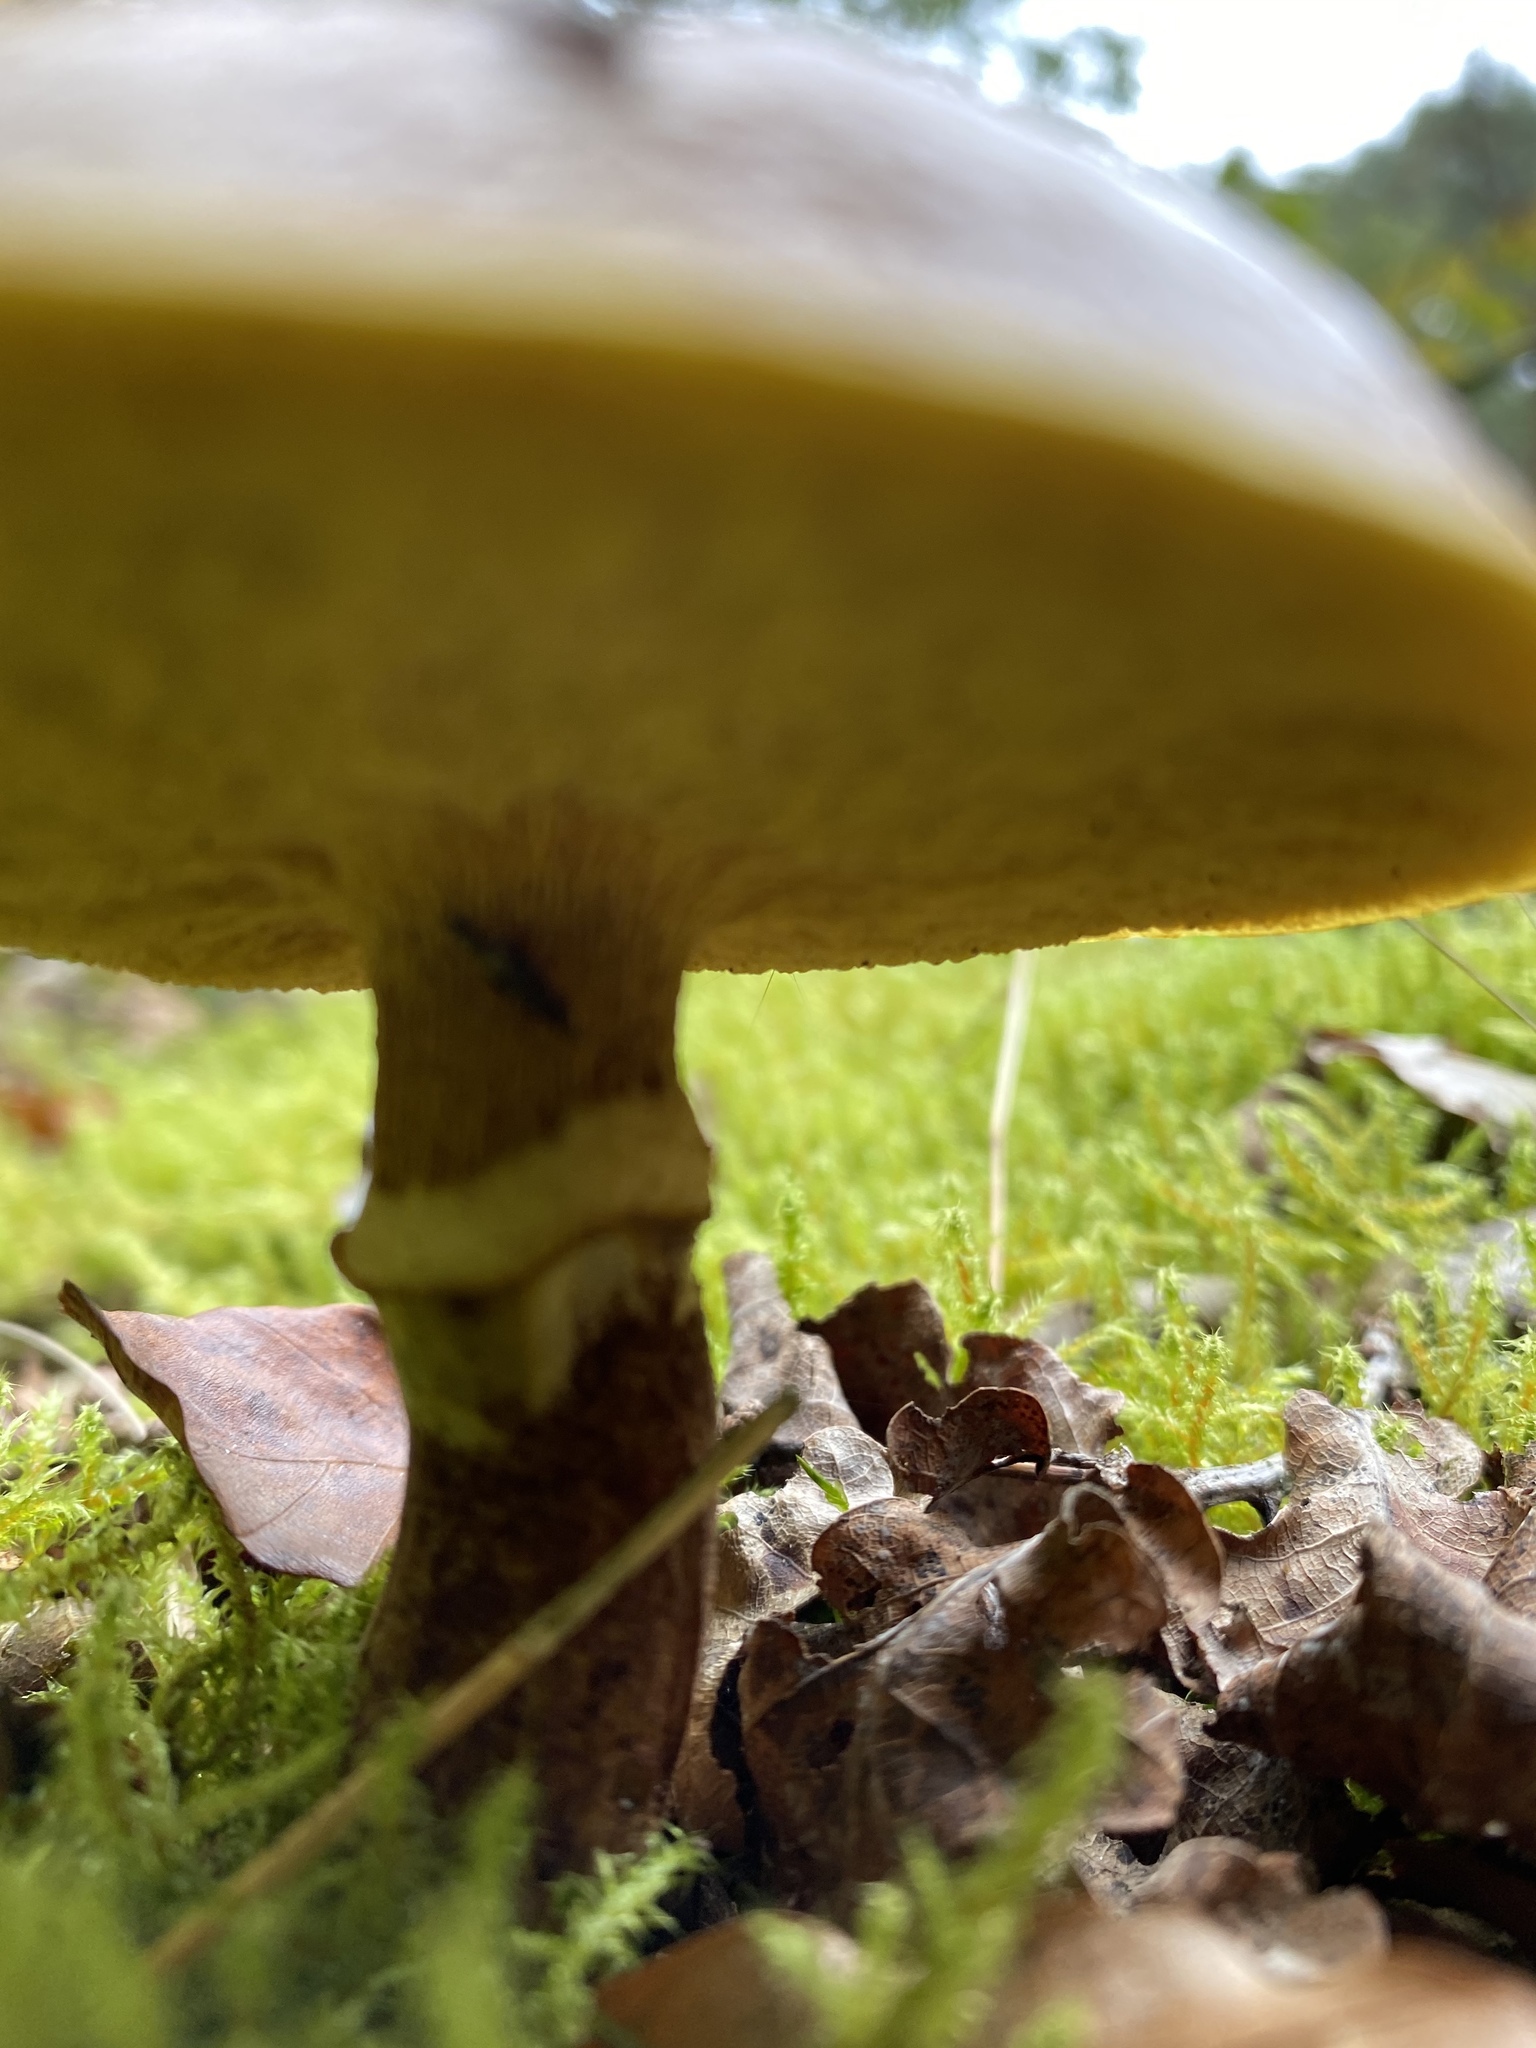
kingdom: Fungi
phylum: Basidiomycota
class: Agaricomycetes
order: Boletales
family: Suillaceae
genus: Suillus
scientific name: Suillus grevillei
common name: Larch bolete
